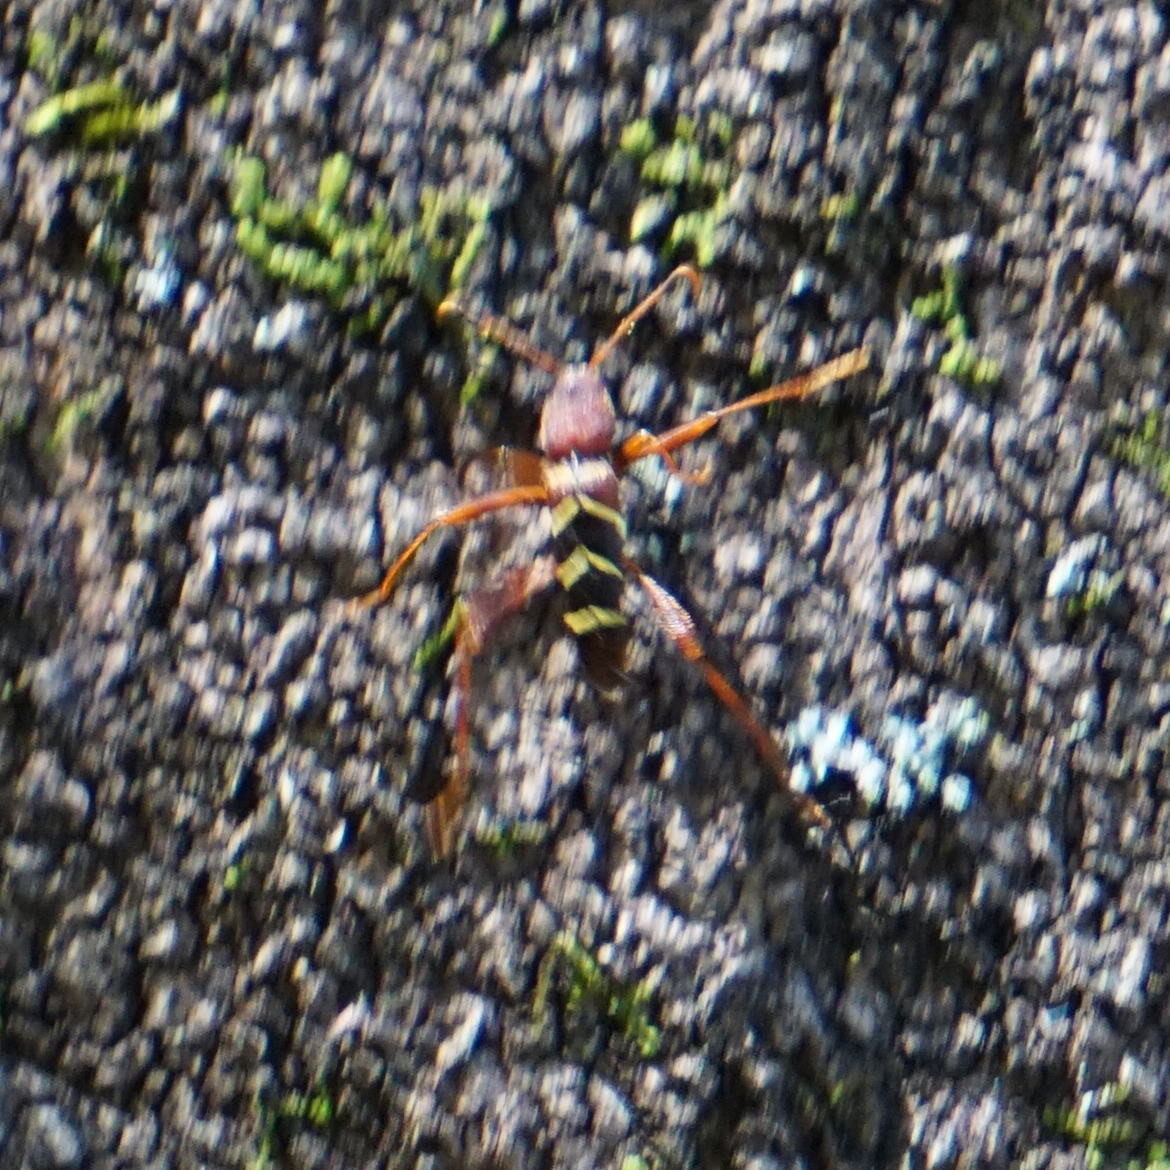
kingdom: Animalia
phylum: Arthropoda
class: Insecta
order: Coleoptera
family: Cerambycidae
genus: Neoclytus
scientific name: Neoclytus acuminatus
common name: Read-headed ash borer
